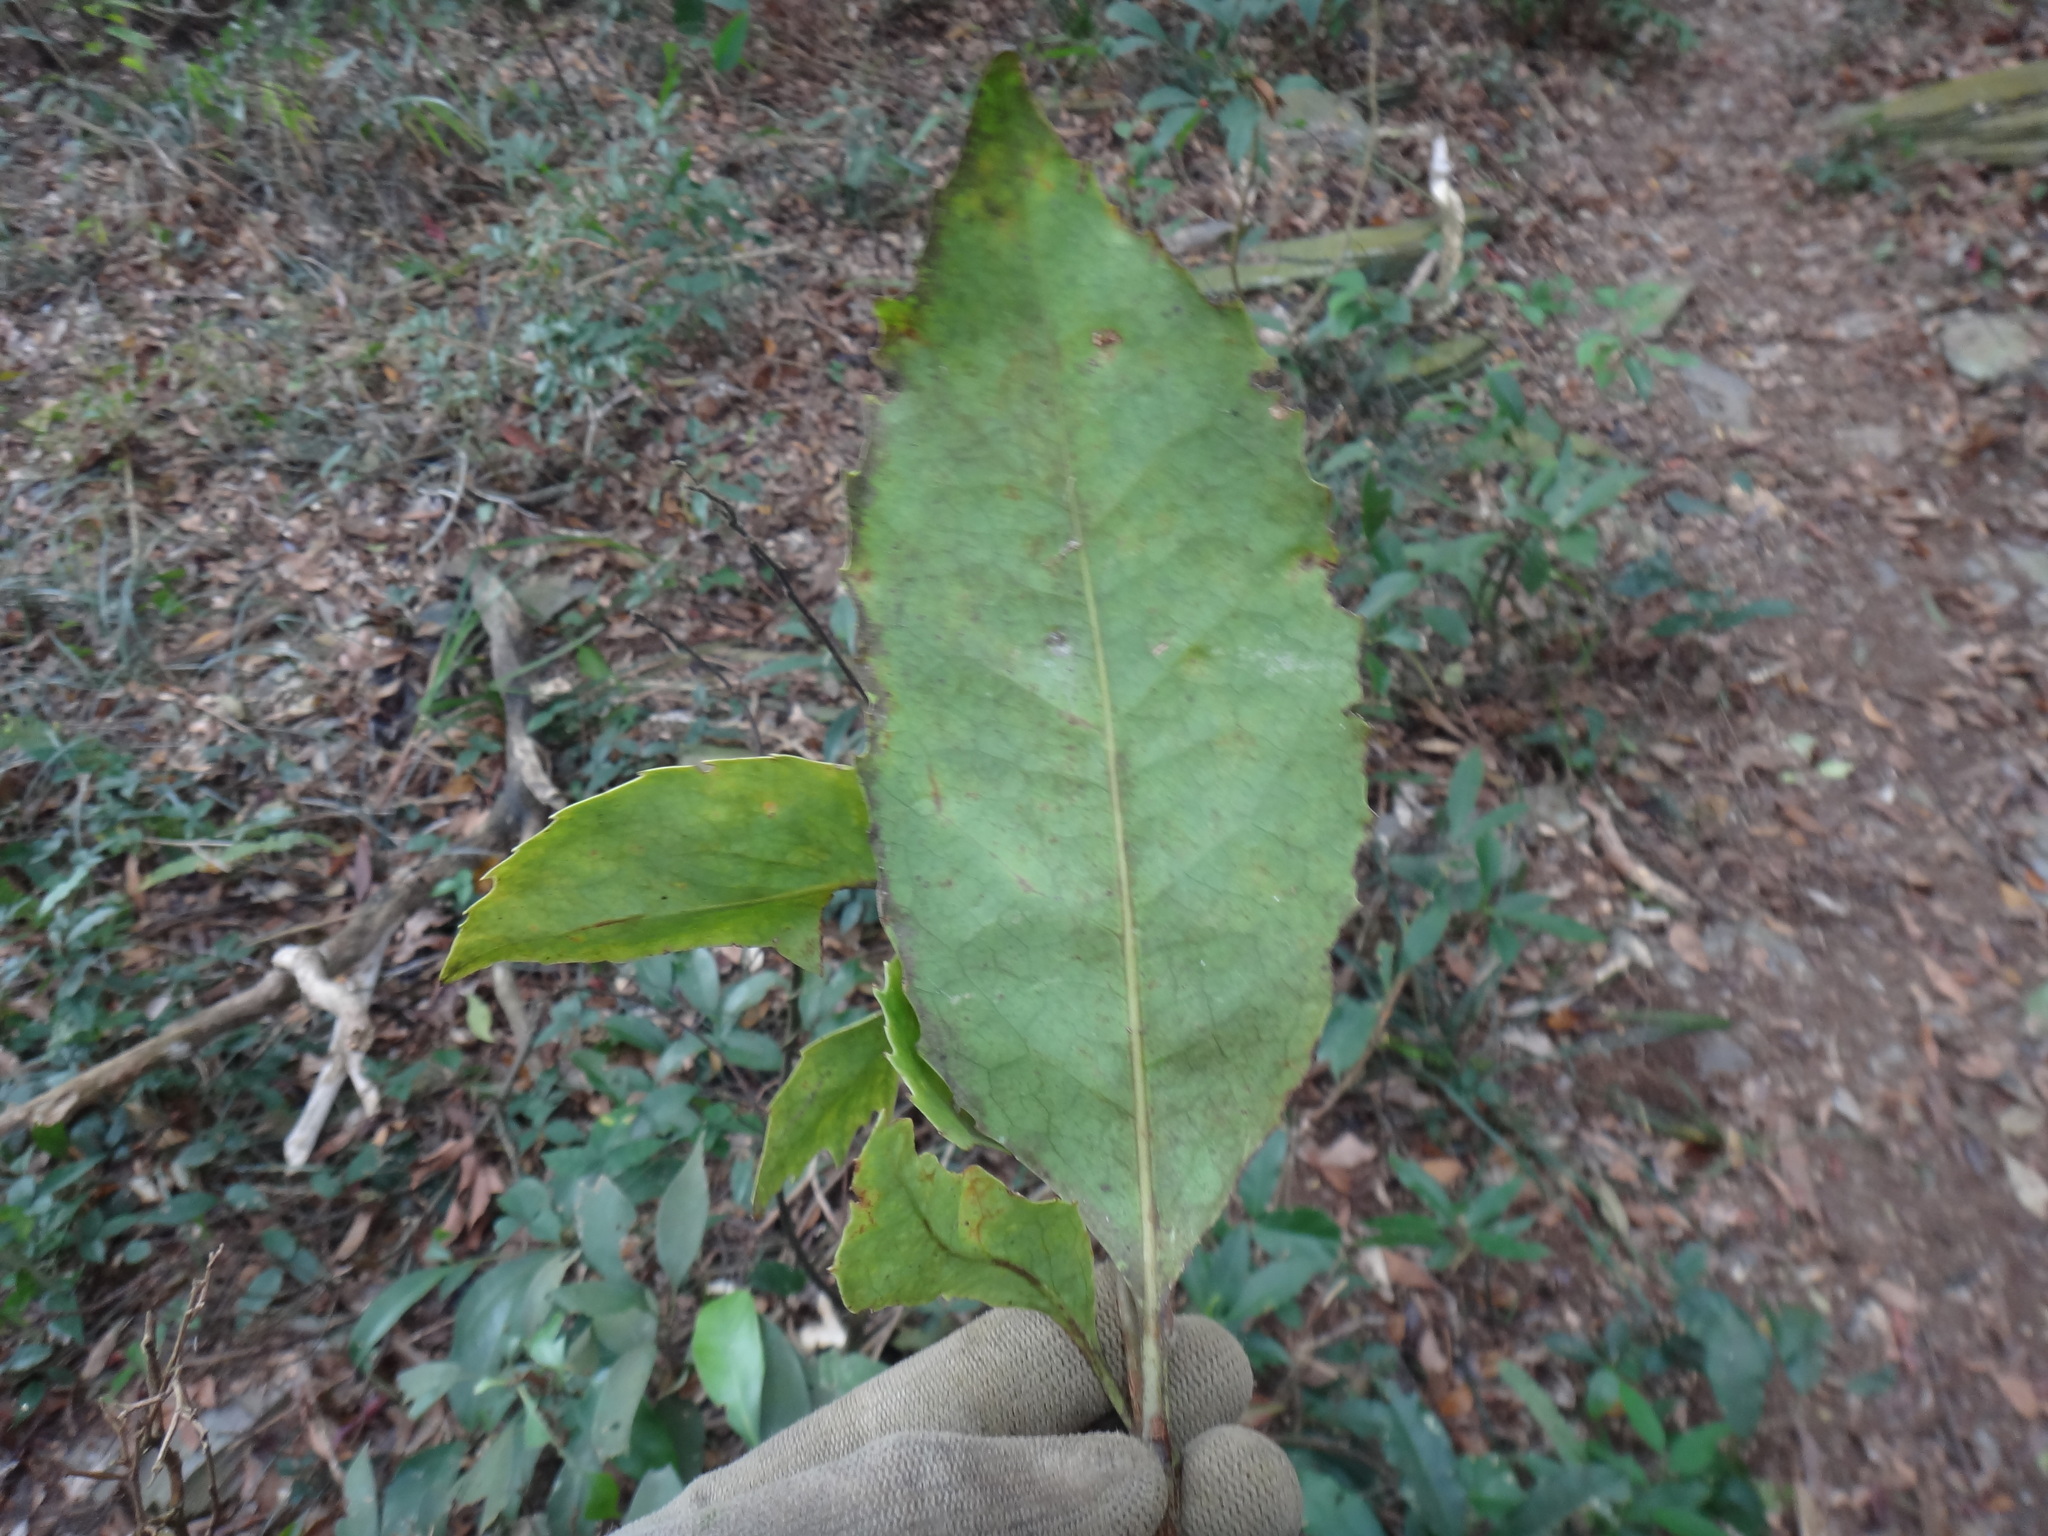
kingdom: Plantae
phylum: Tracheophyta
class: Magnoliopsida
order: Proteales
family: Proteaceae
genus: Helicia
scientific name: Helicia rengetiensis
